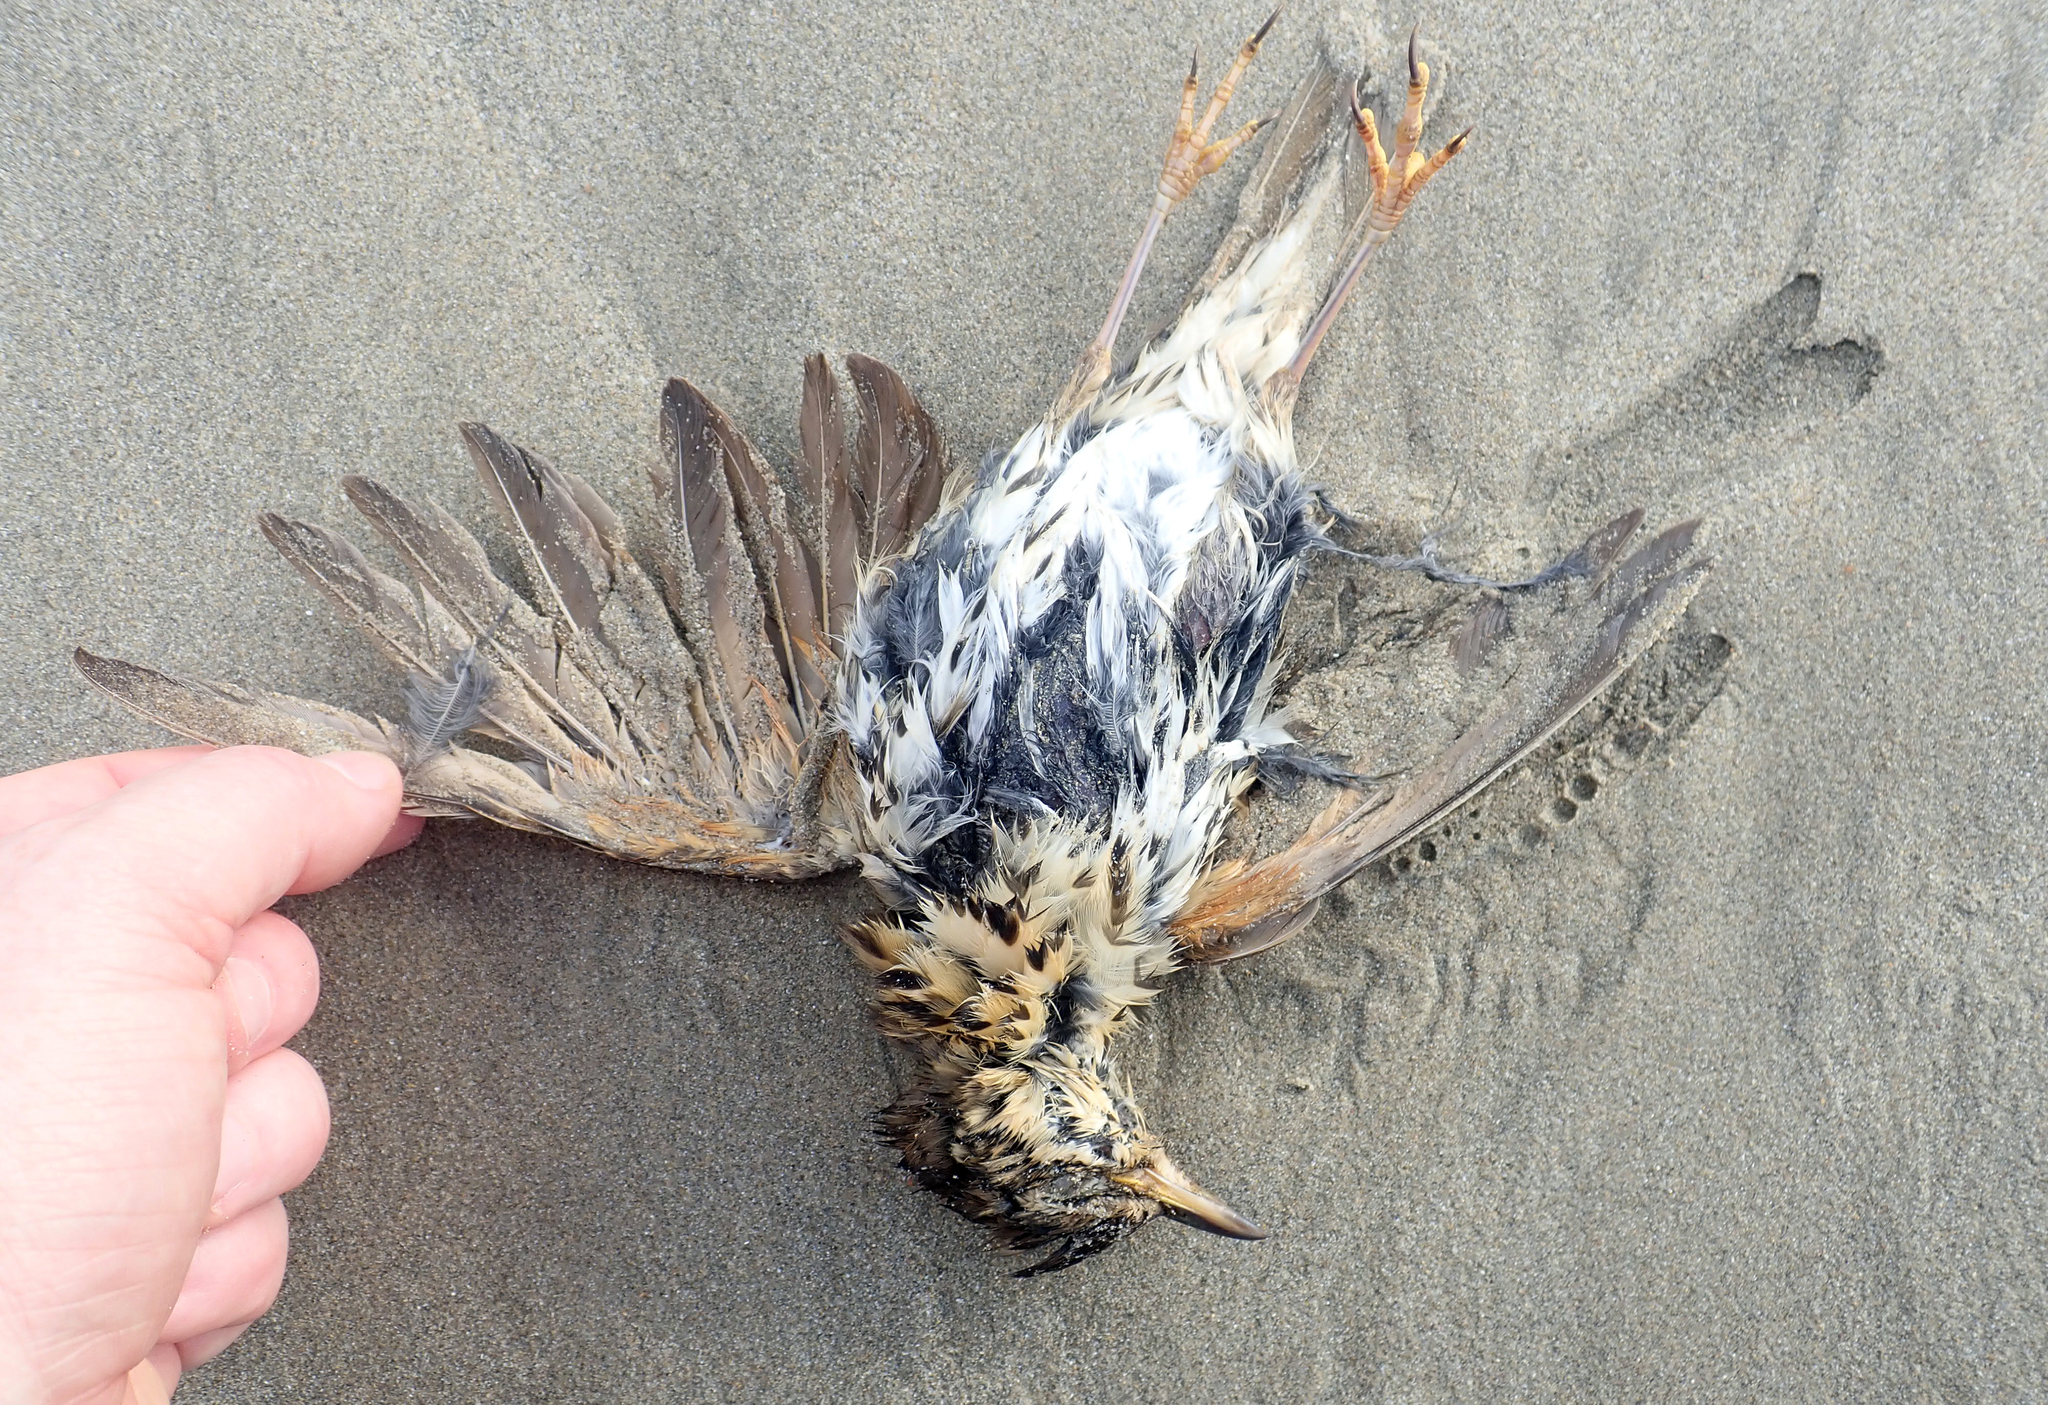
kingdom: Animalia
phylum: Chordata
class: Aves
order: Passeriformes
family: Turdidae
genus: Turdus
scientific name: Turdus philomelos
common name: Song thrush
